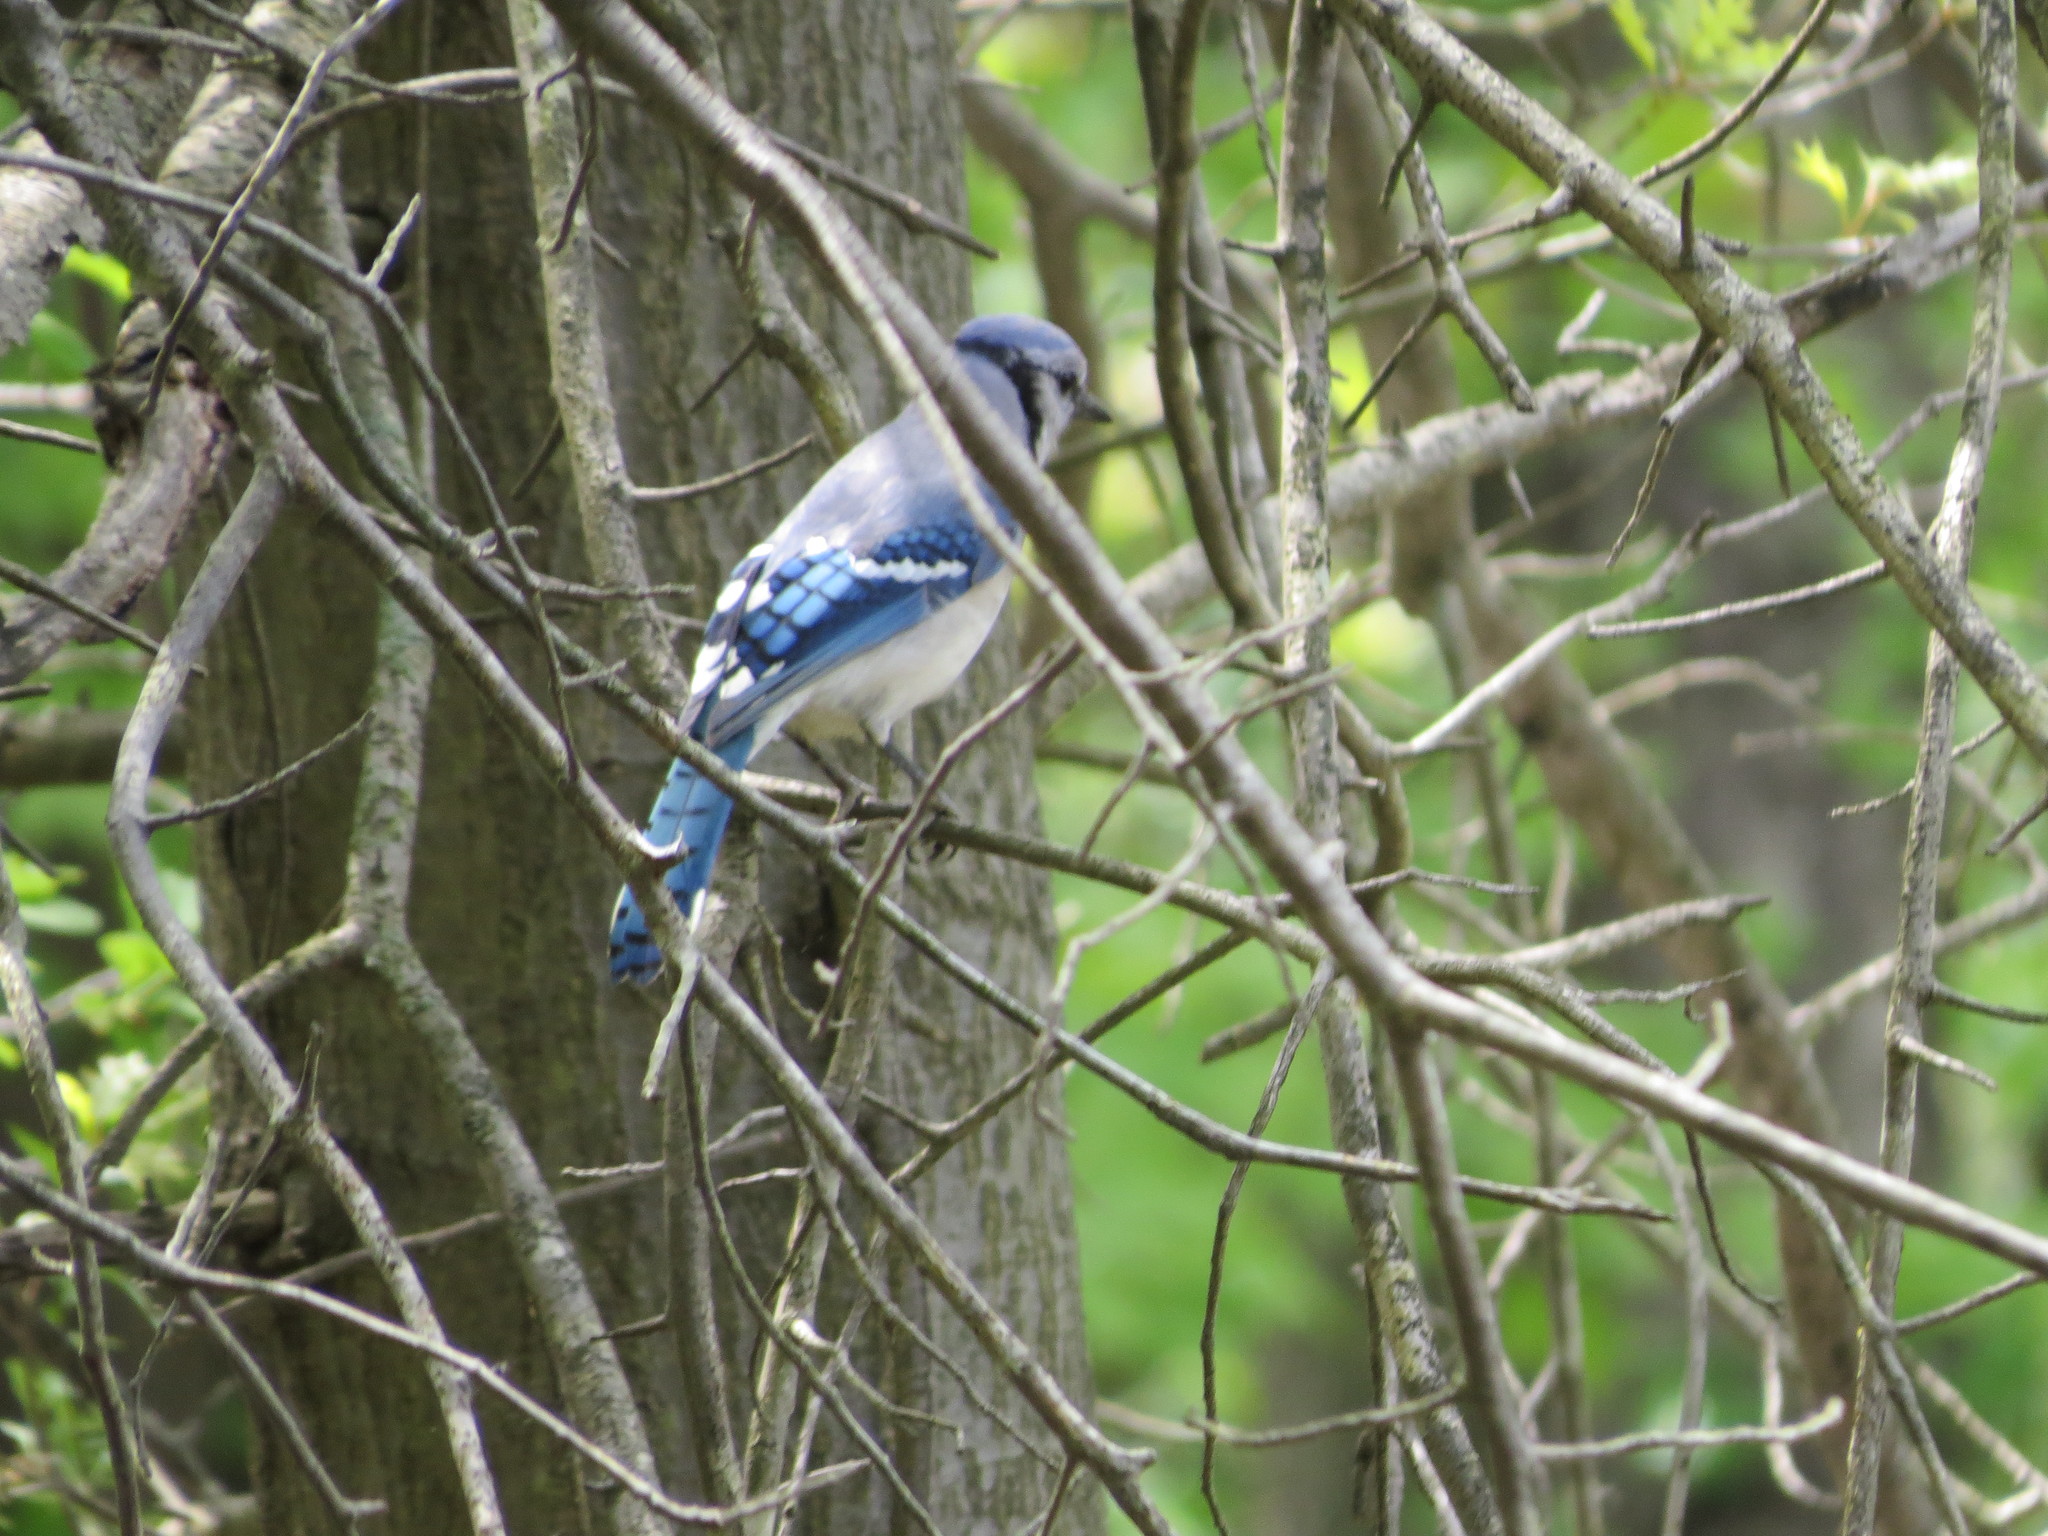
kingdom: Animalia
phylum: Chordata
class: Aves
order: Passeriformes
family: Corvidae
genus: Cyanocitta
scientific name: Cyanocitta cristata
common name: Blue jay
